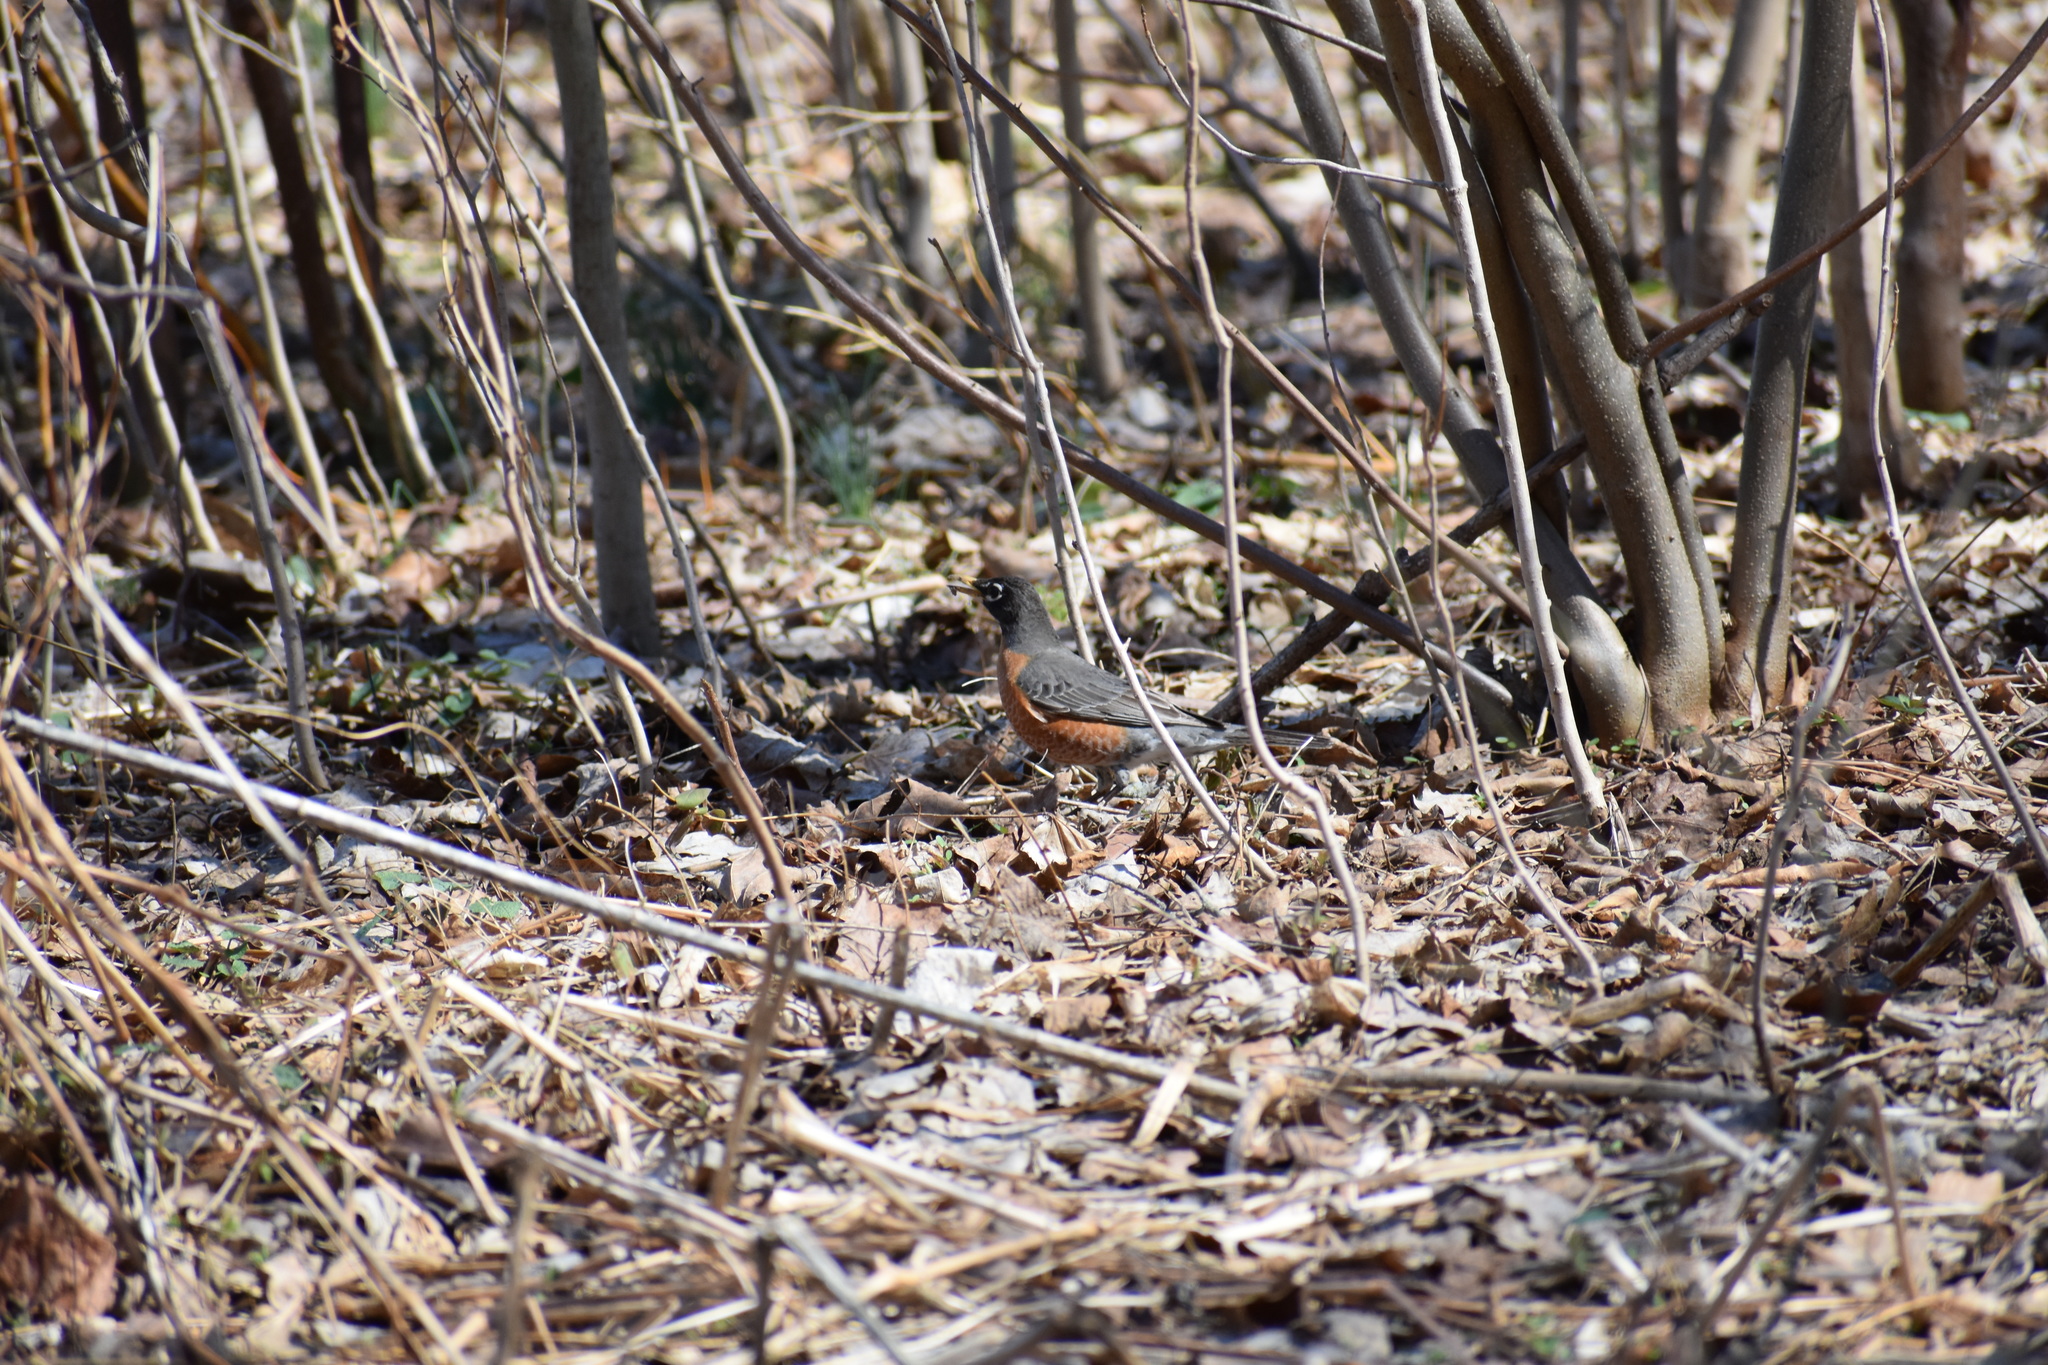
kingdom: Animalia
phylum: Chordata
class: Aves
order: Passeriformes
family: Turdidae
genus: Turdus
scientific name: Turdus migratorius
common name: American robin
